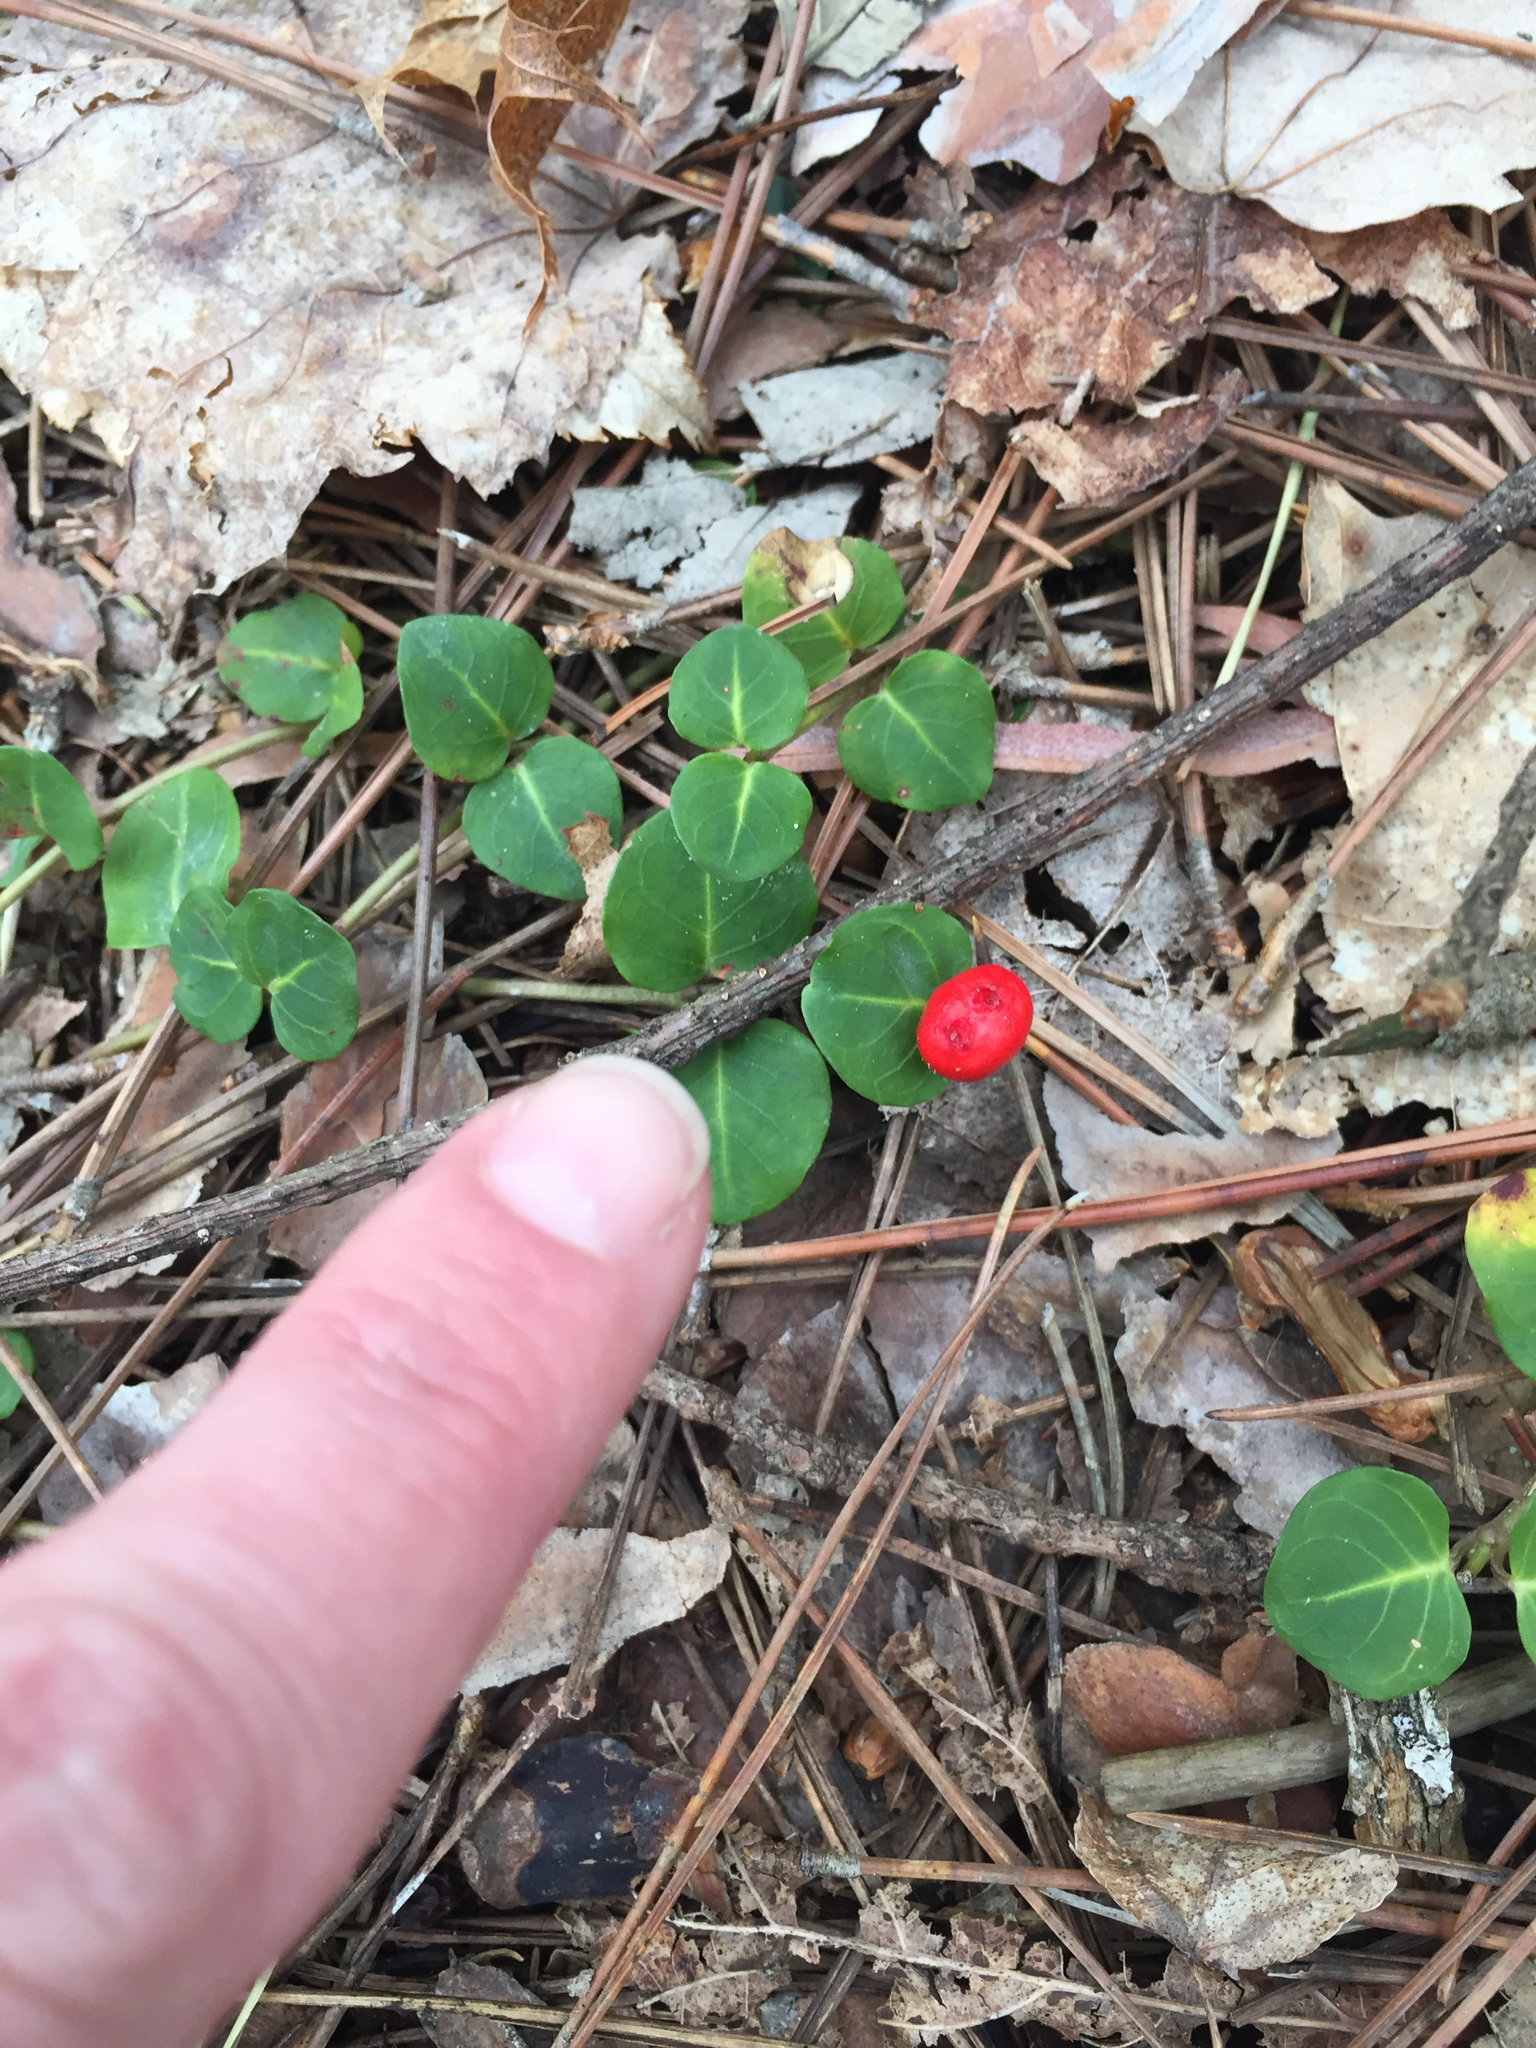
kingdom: Plantae
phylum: Tracheophyta
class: Magnoliopsida
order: Gentianales
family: Rubiaceae
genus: Mitchella
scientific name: Mitchella repens
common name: Partridge-berry
